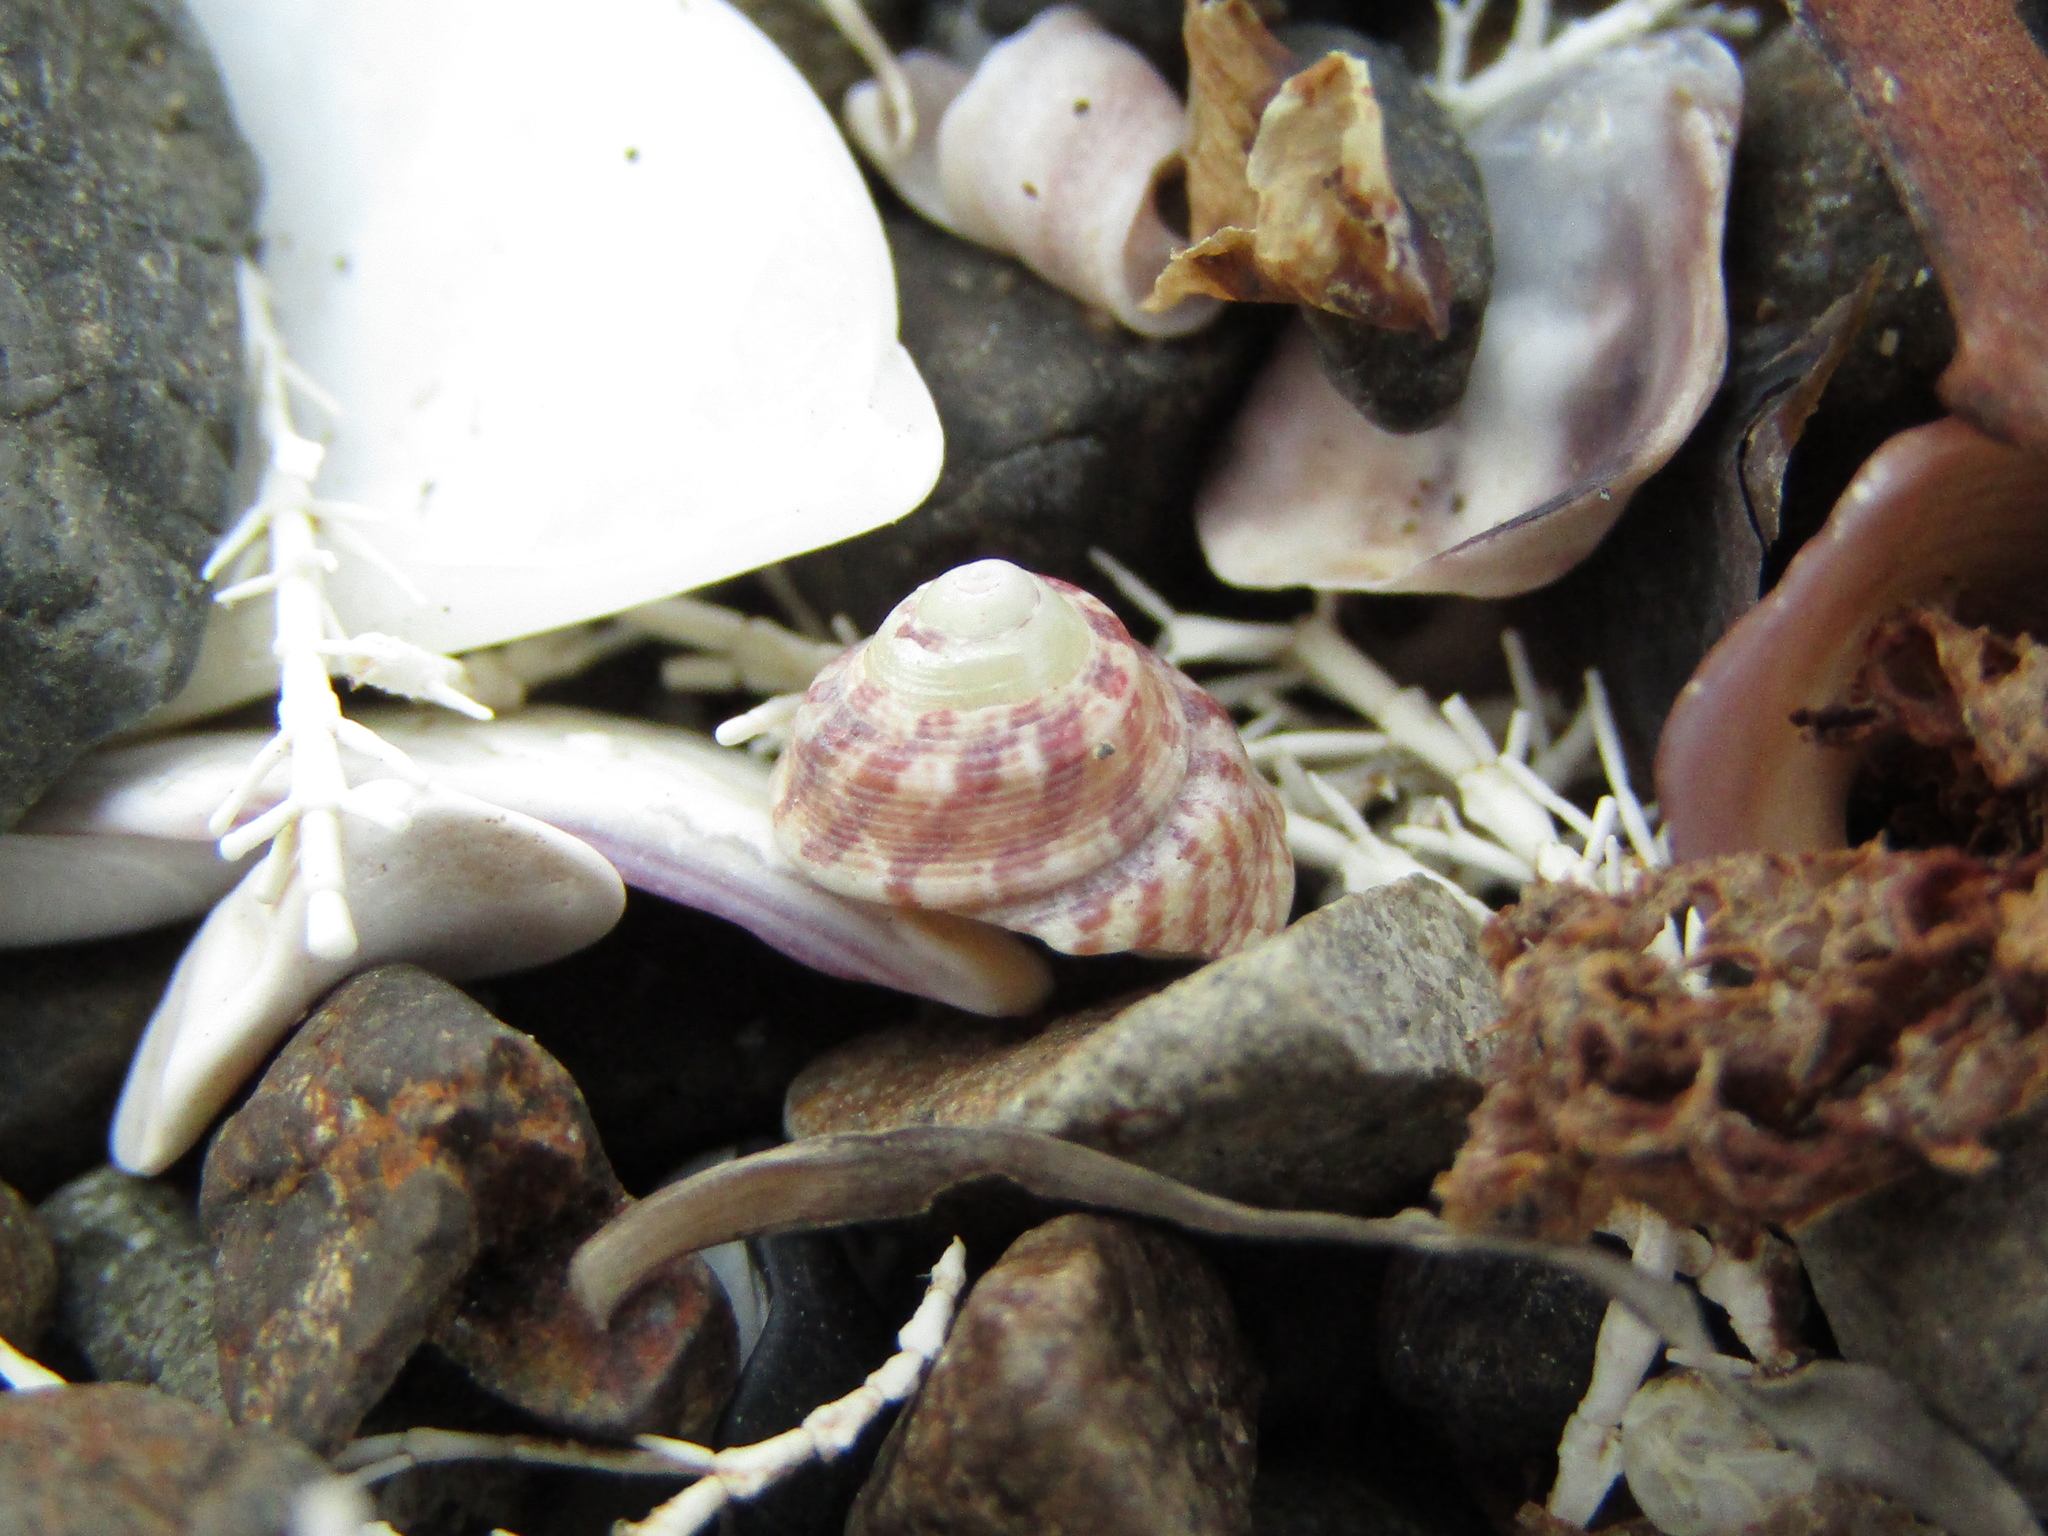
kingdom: Animalia
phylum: Mollusca
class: Gastropoda
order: Trochida
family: Trochidae
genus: Coelotrochus
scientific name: Coelotrochus oppressus
